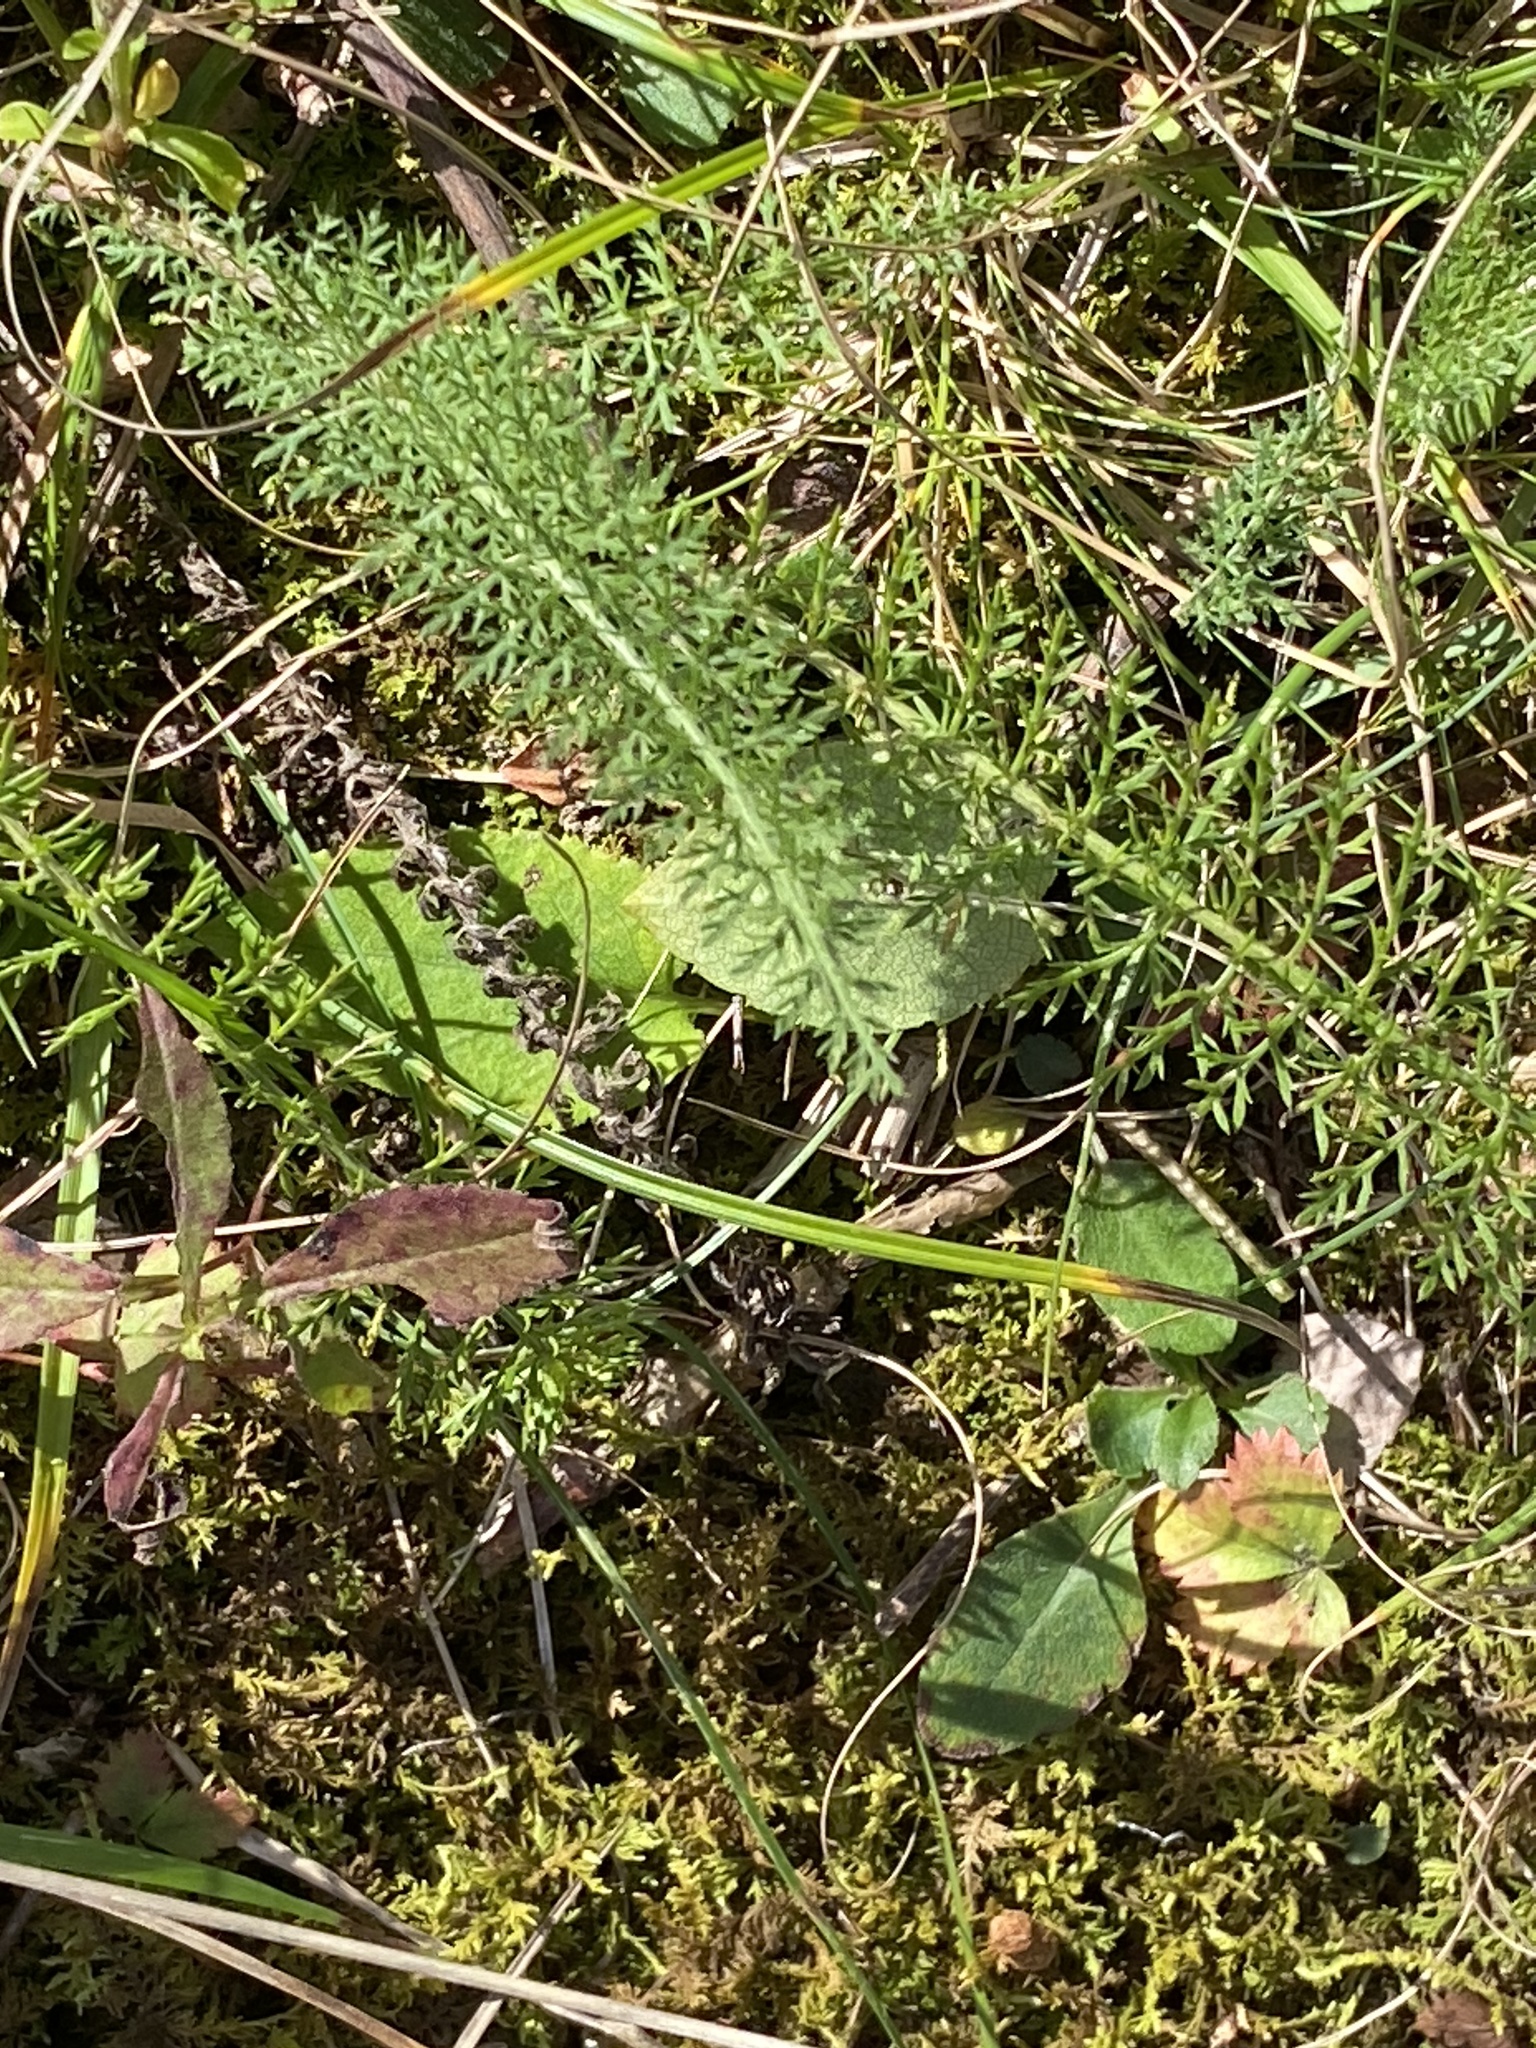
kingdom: Plantae
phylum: Tracheophyta
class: Magnoliopsida
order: Asterales
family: Asteraceae
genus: Achillea
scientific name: Achillea millefolium
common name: Yarrow
